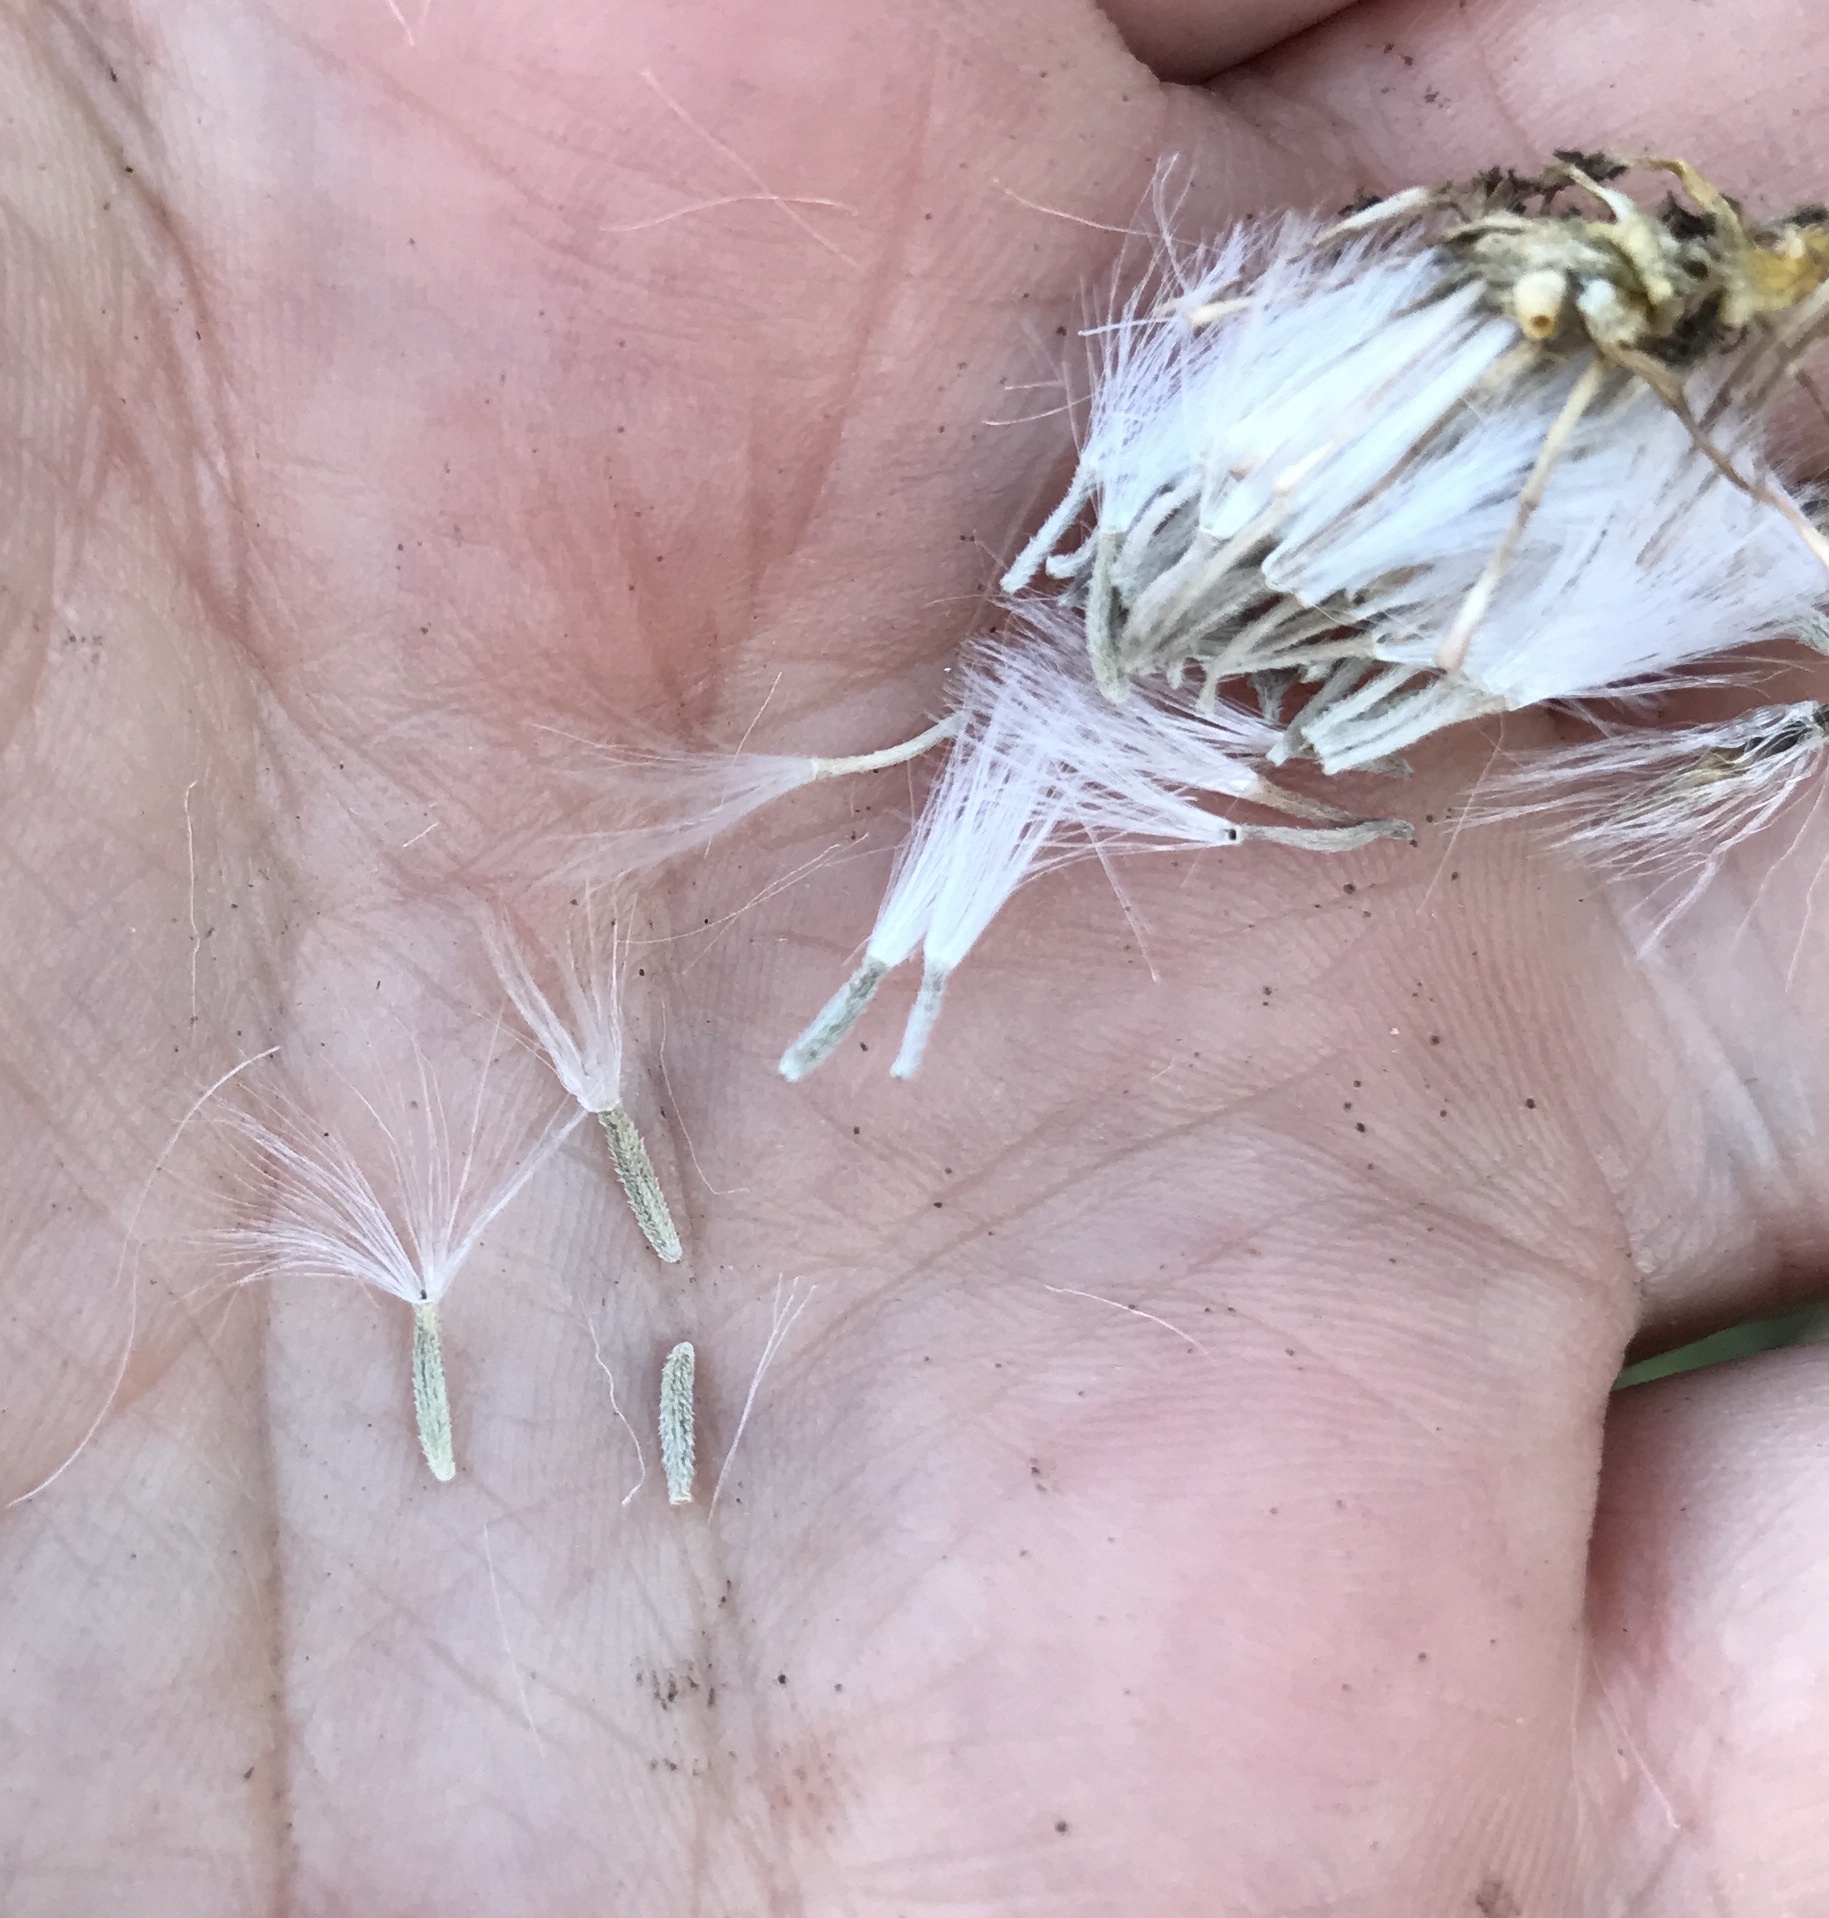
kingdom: Plantae
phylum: Tracheophyta
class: Magnoliopsida
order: Asterales
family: Asteraceae
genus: Senecio
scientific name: Senecio flaccidus
